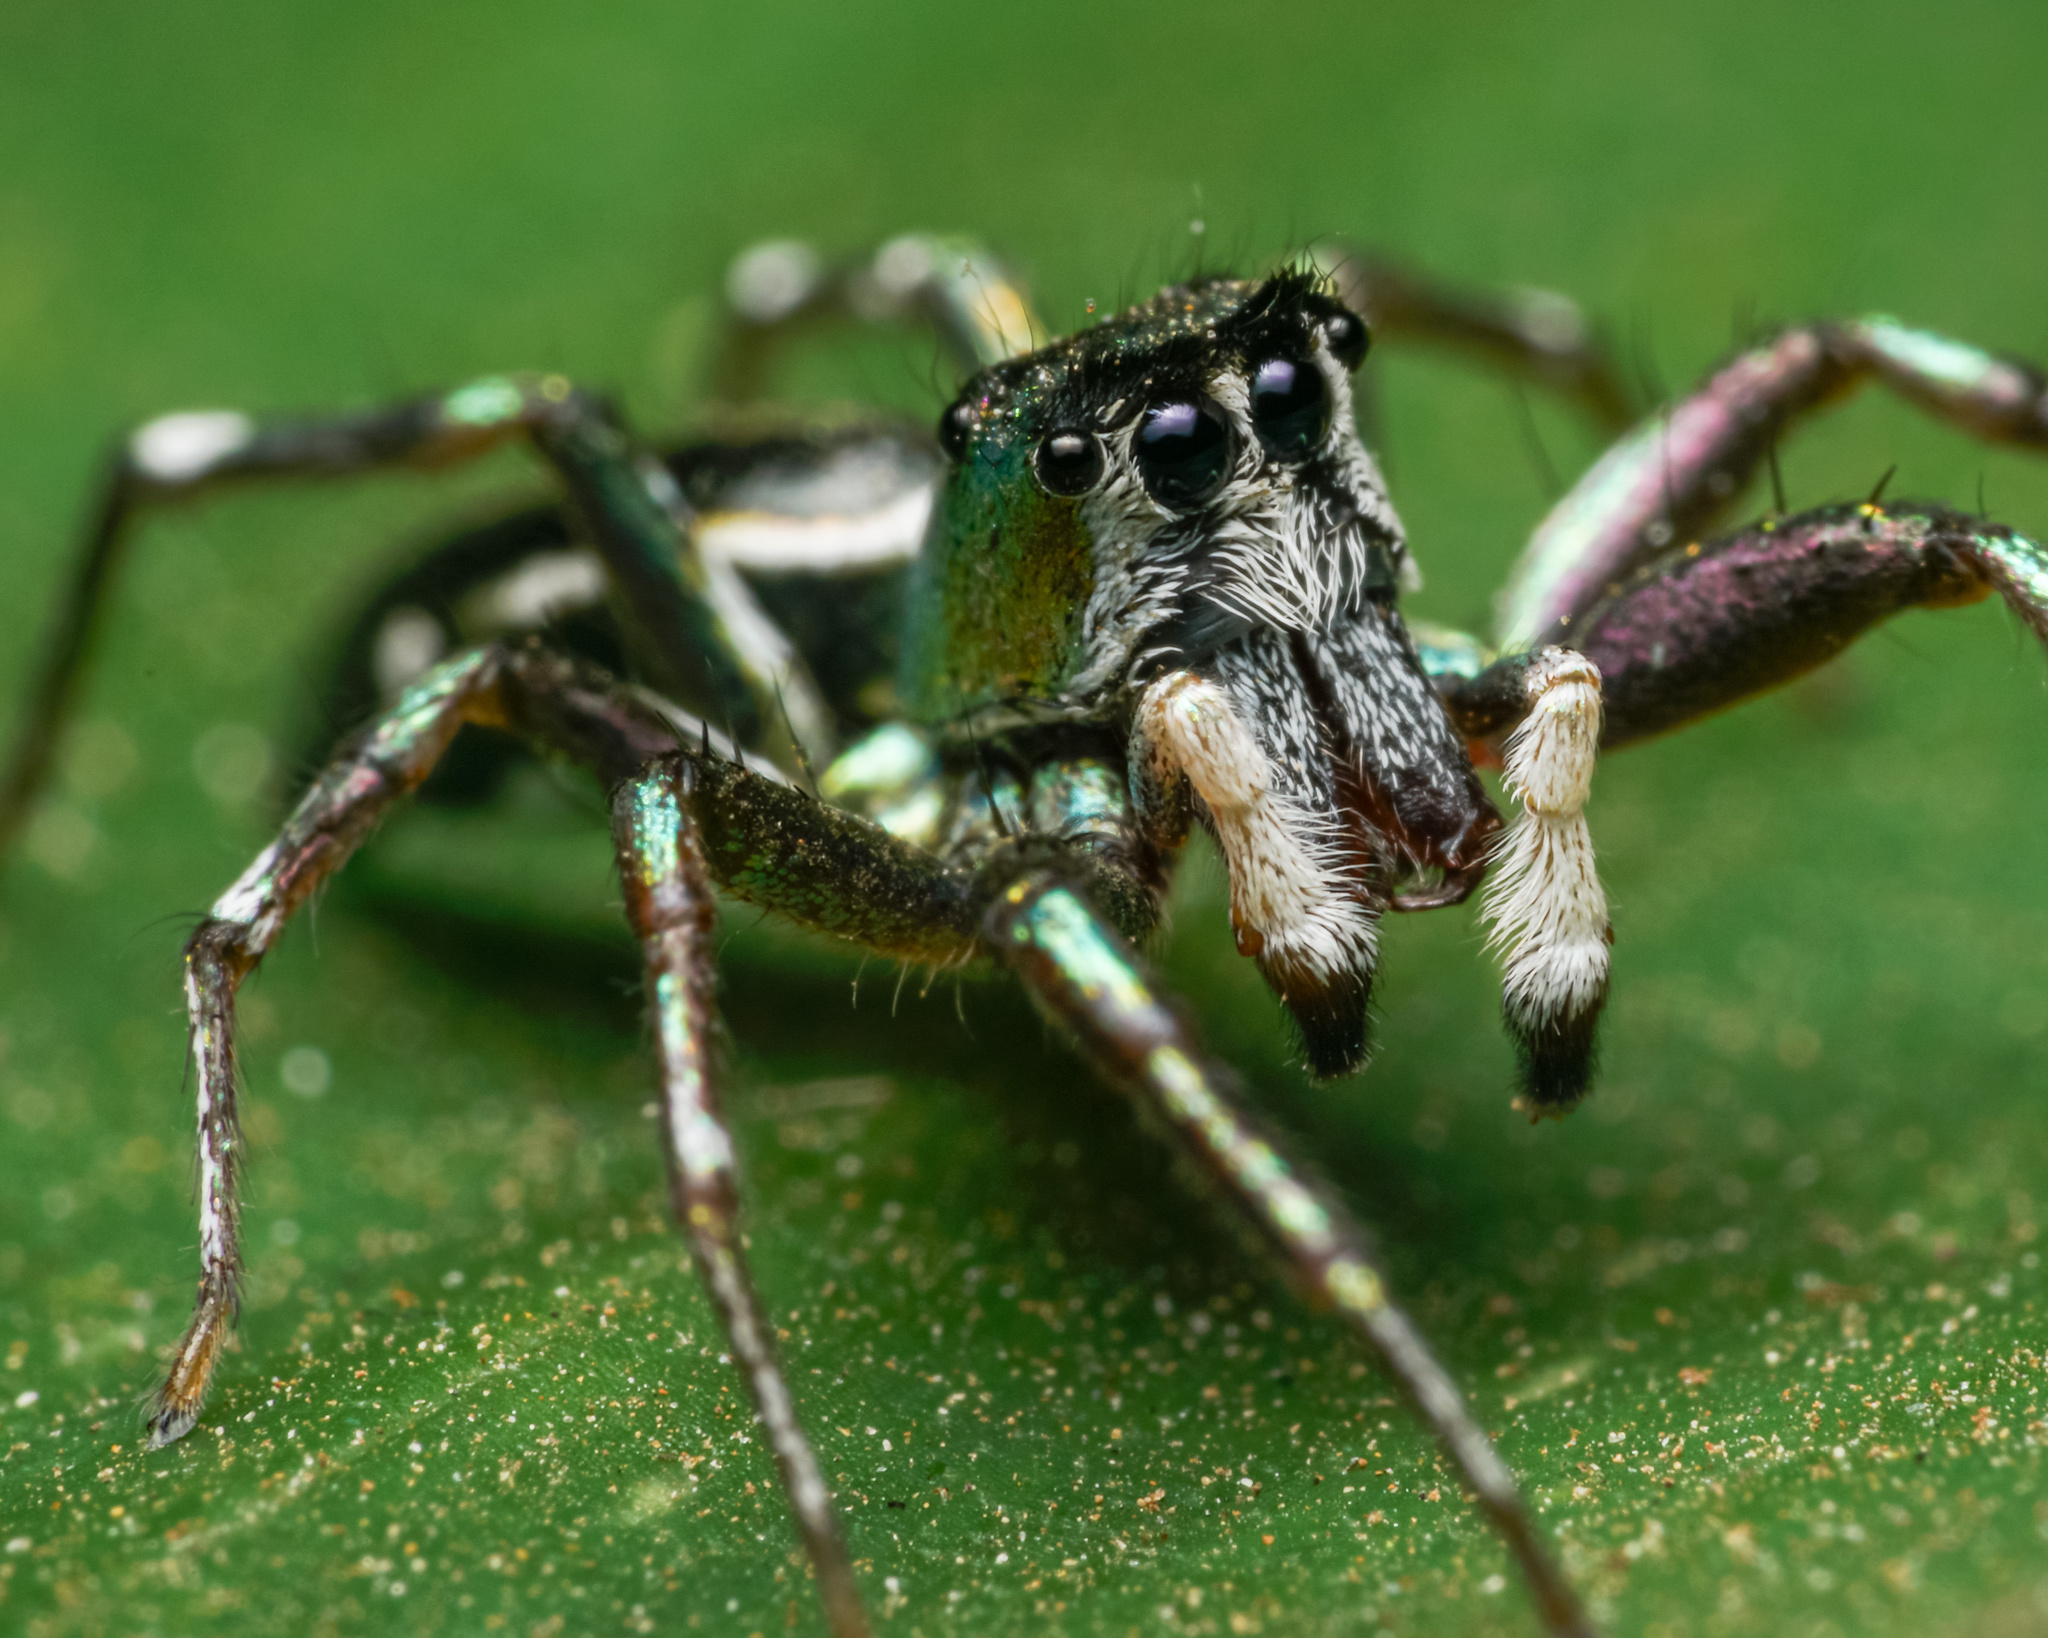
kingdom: Animalia
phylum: Arthropoda
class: Arachnida
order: Araneae
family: Salticidae
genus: Cosmophasis
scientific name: Cosmophasis thalassina
